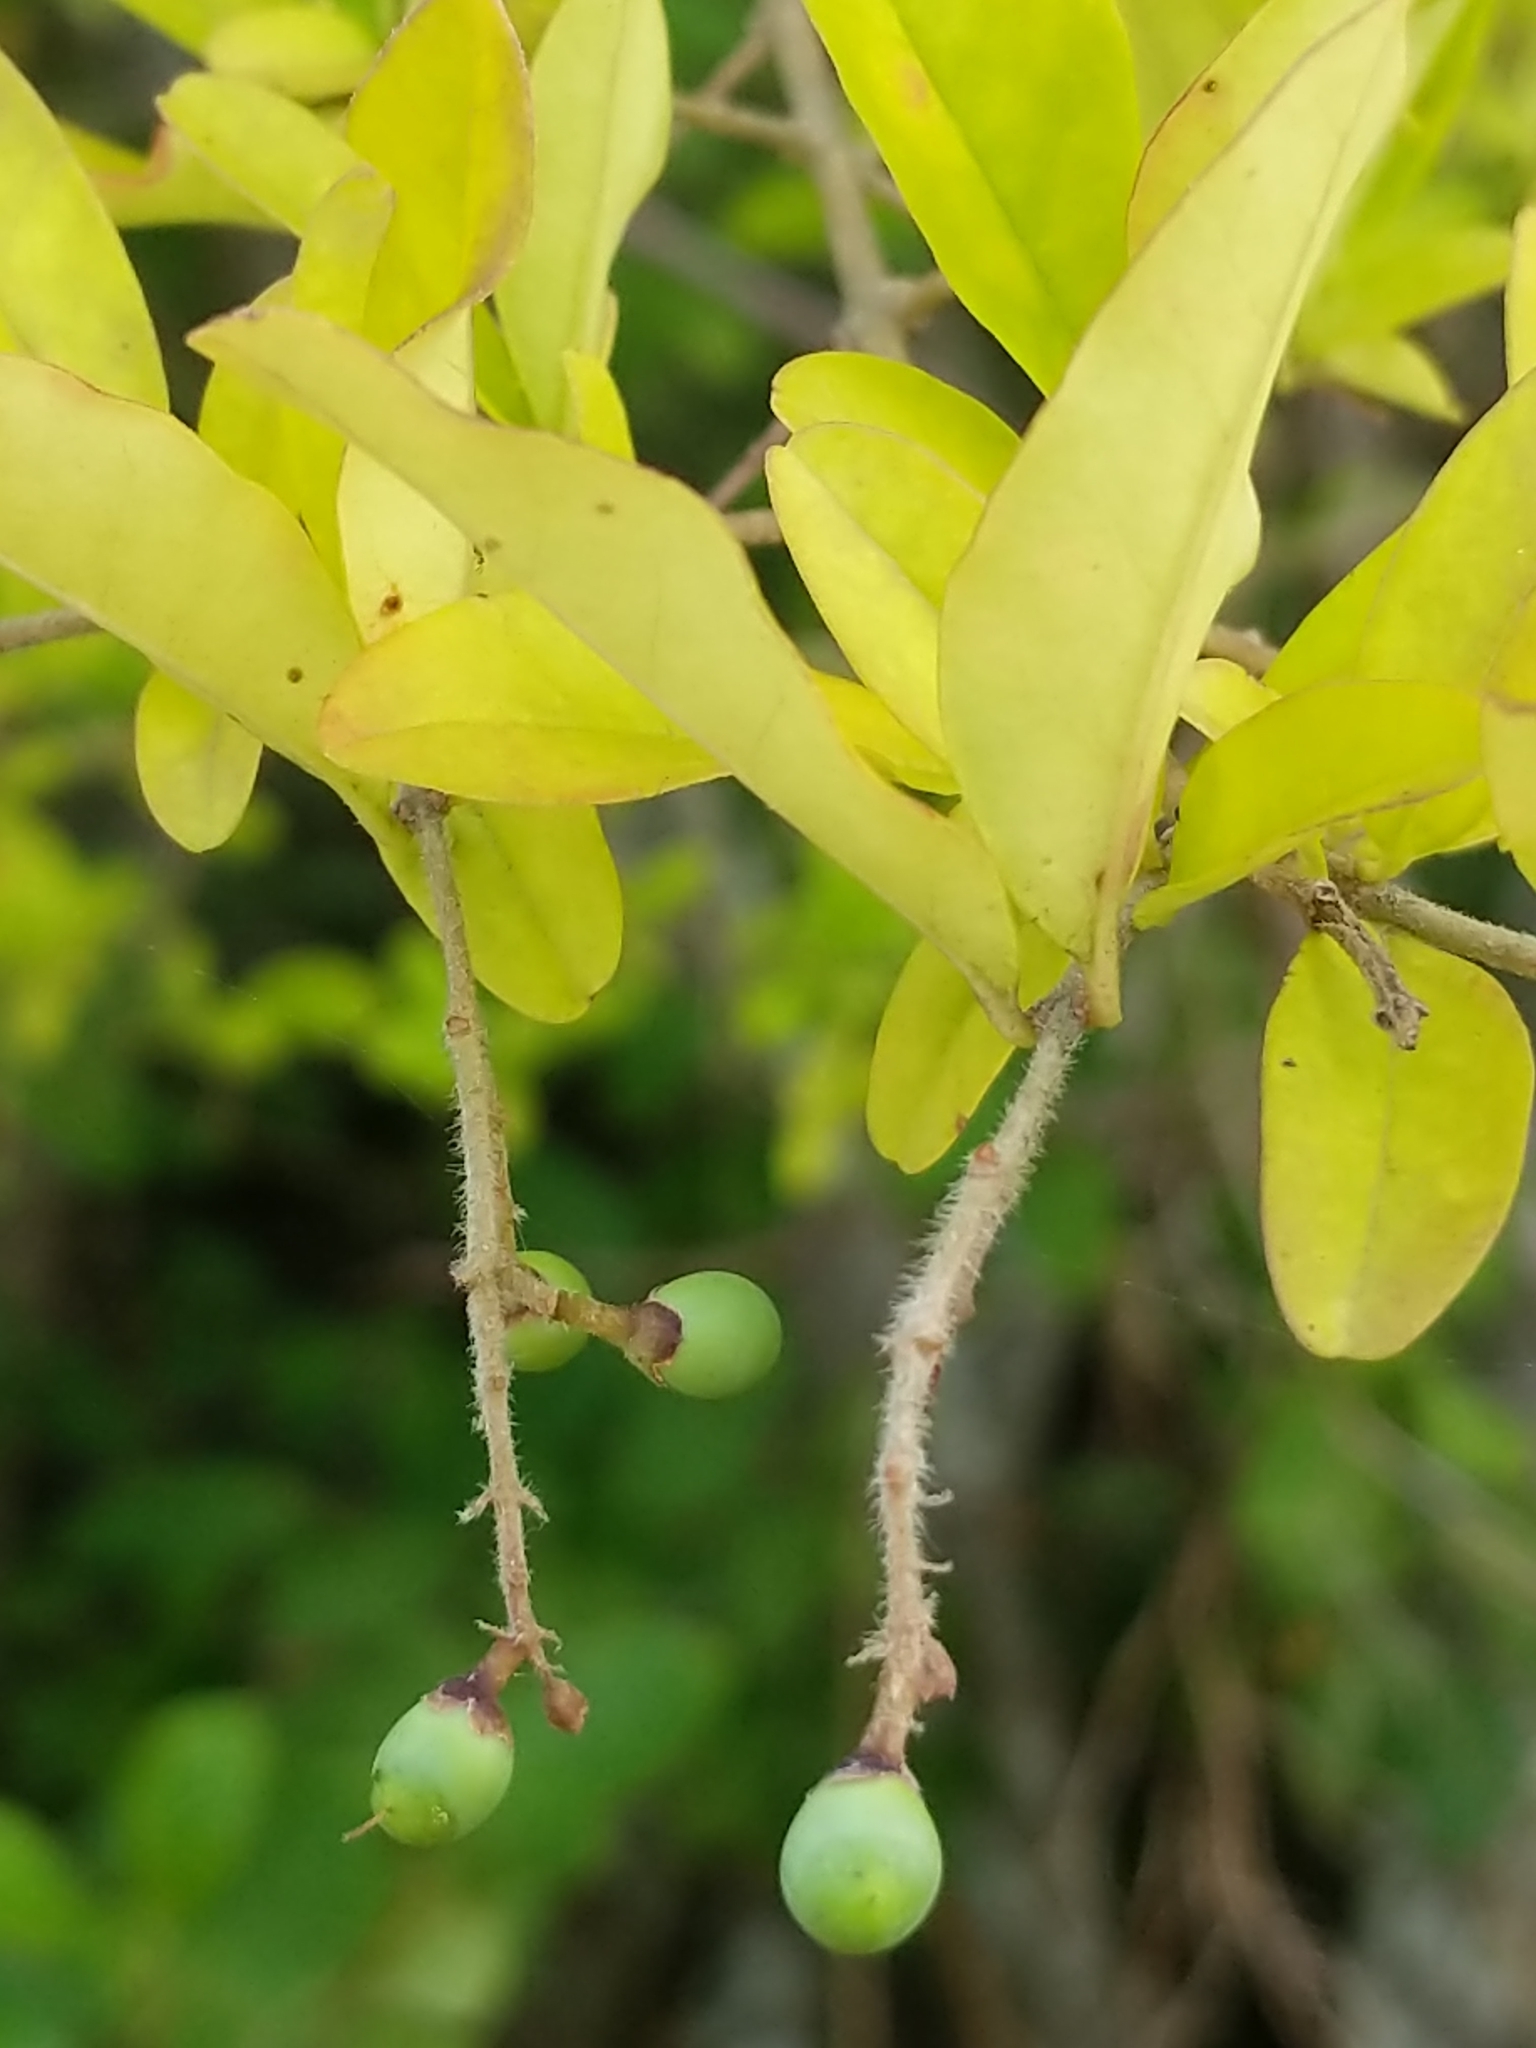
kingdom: Plantae
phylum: Tracheophyta
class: Magnoliopsida
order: Lamiales
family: Oleaceae
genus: Ligustrum
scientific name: Ligustrum obtusifolium
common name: Border privet
